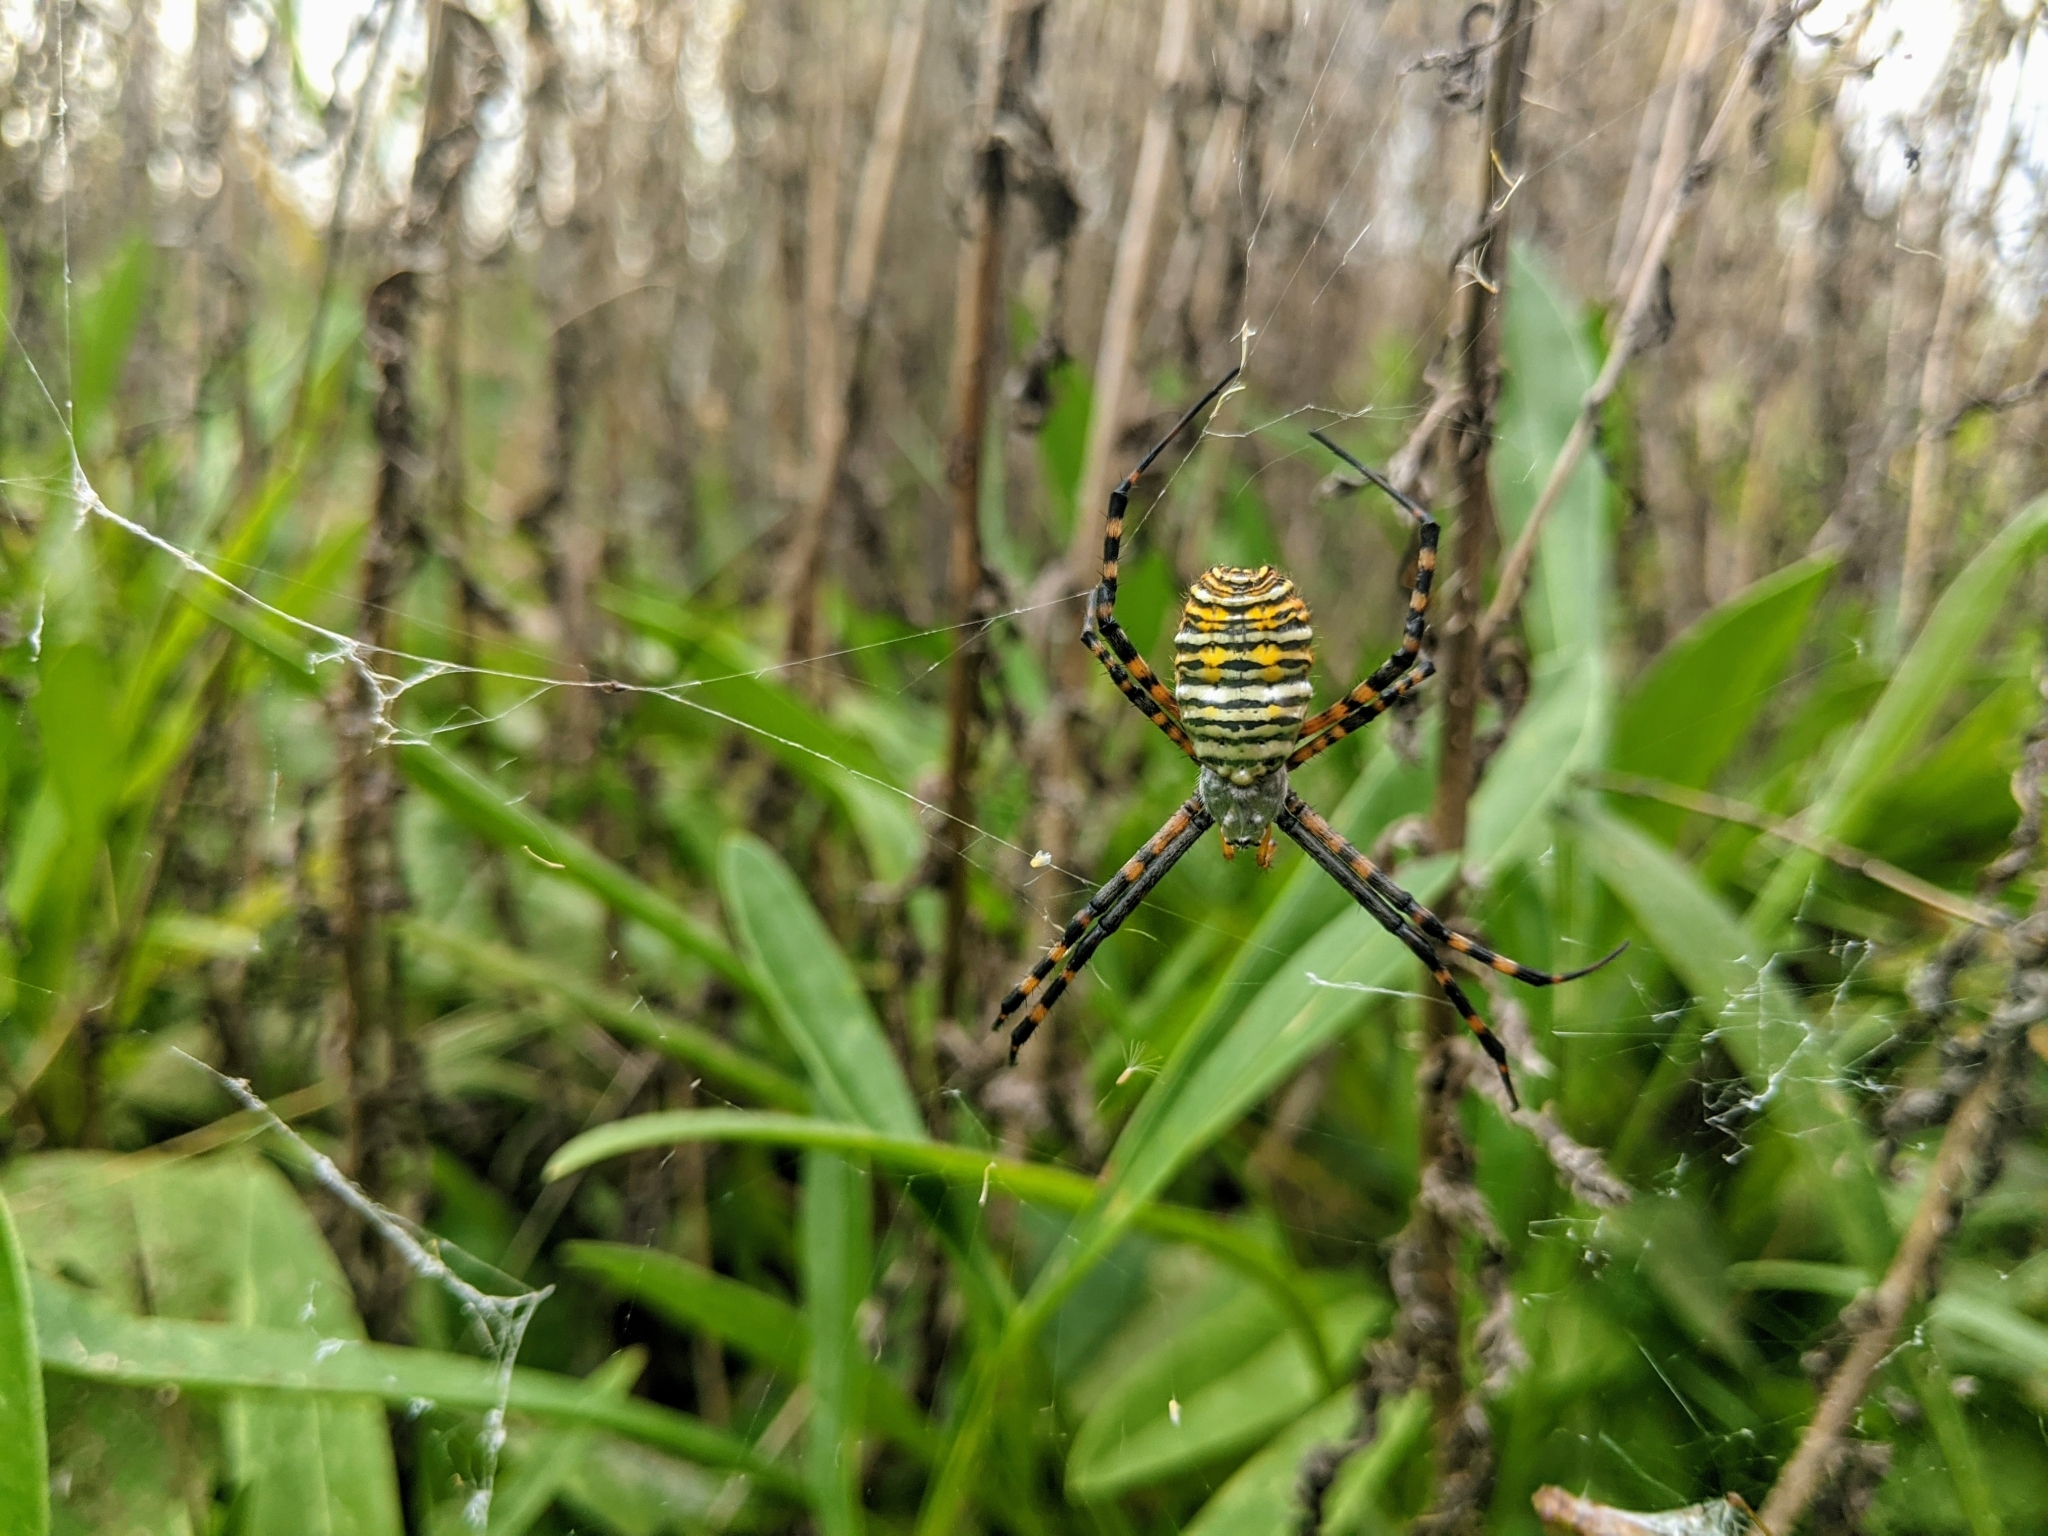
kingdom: Animalia
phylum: Arthropoda
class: Arachnida
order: Araneae
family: Araneidae
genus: Argiope
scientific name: Argiope trifasciata
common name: Banded garden spider
